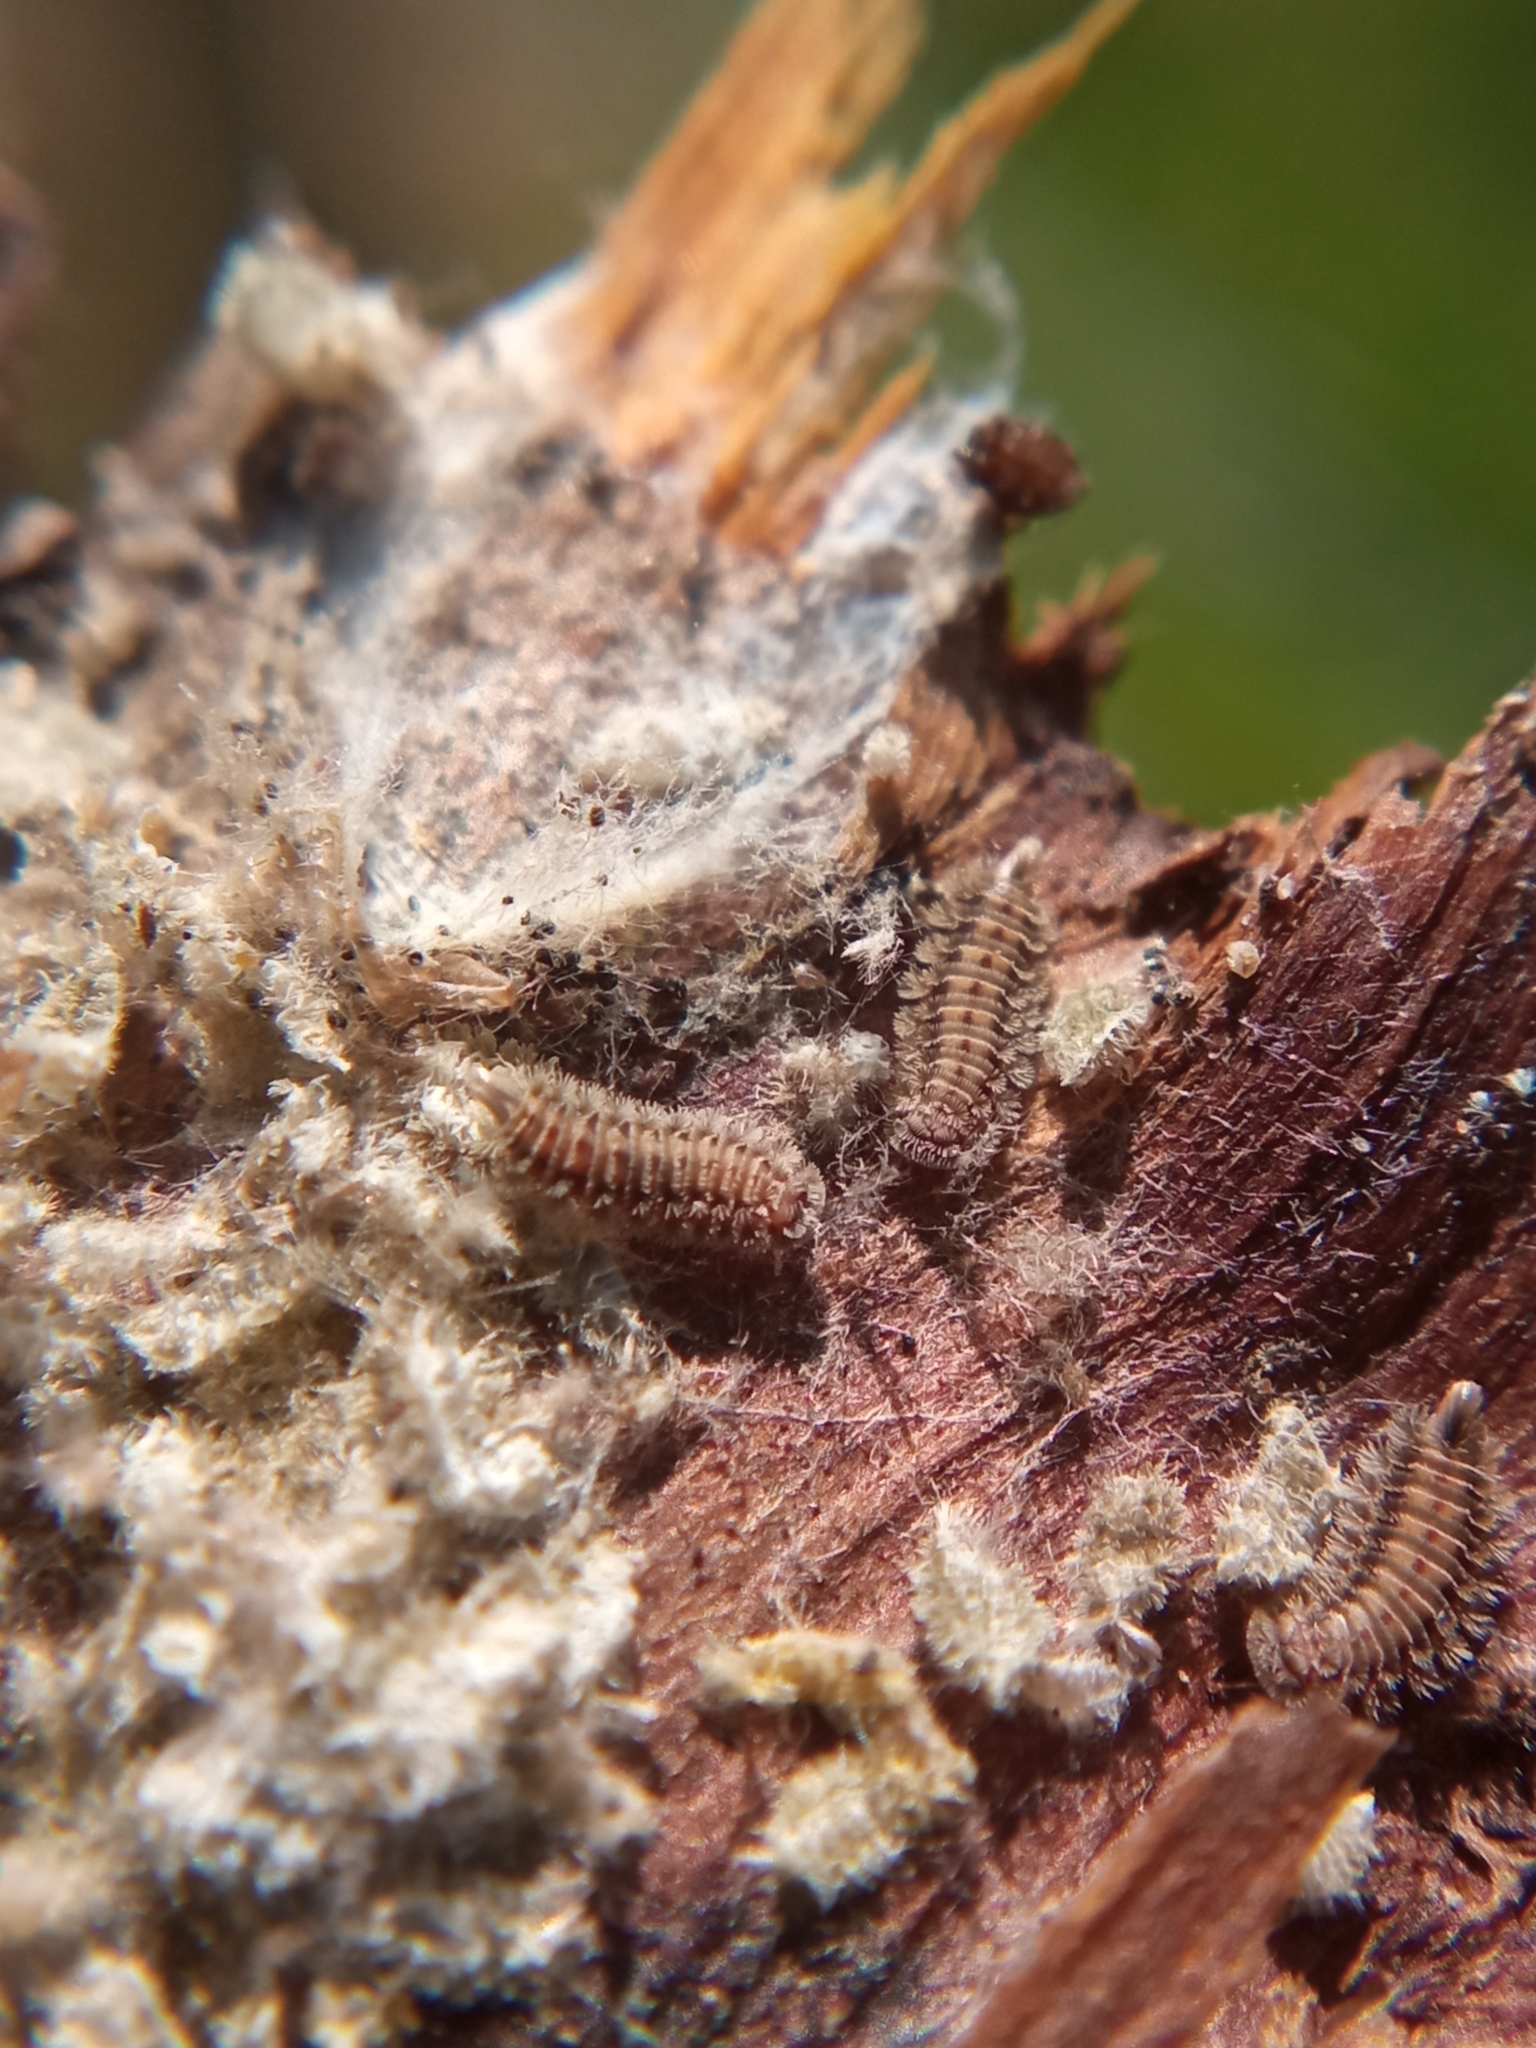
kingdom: Animalia
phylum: Arthropoda
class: Diplopoda
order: Polyxenida
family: Polyxenidae
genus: Polyxenus
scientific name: Polyxenus lagurus
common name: Bristly millipede
